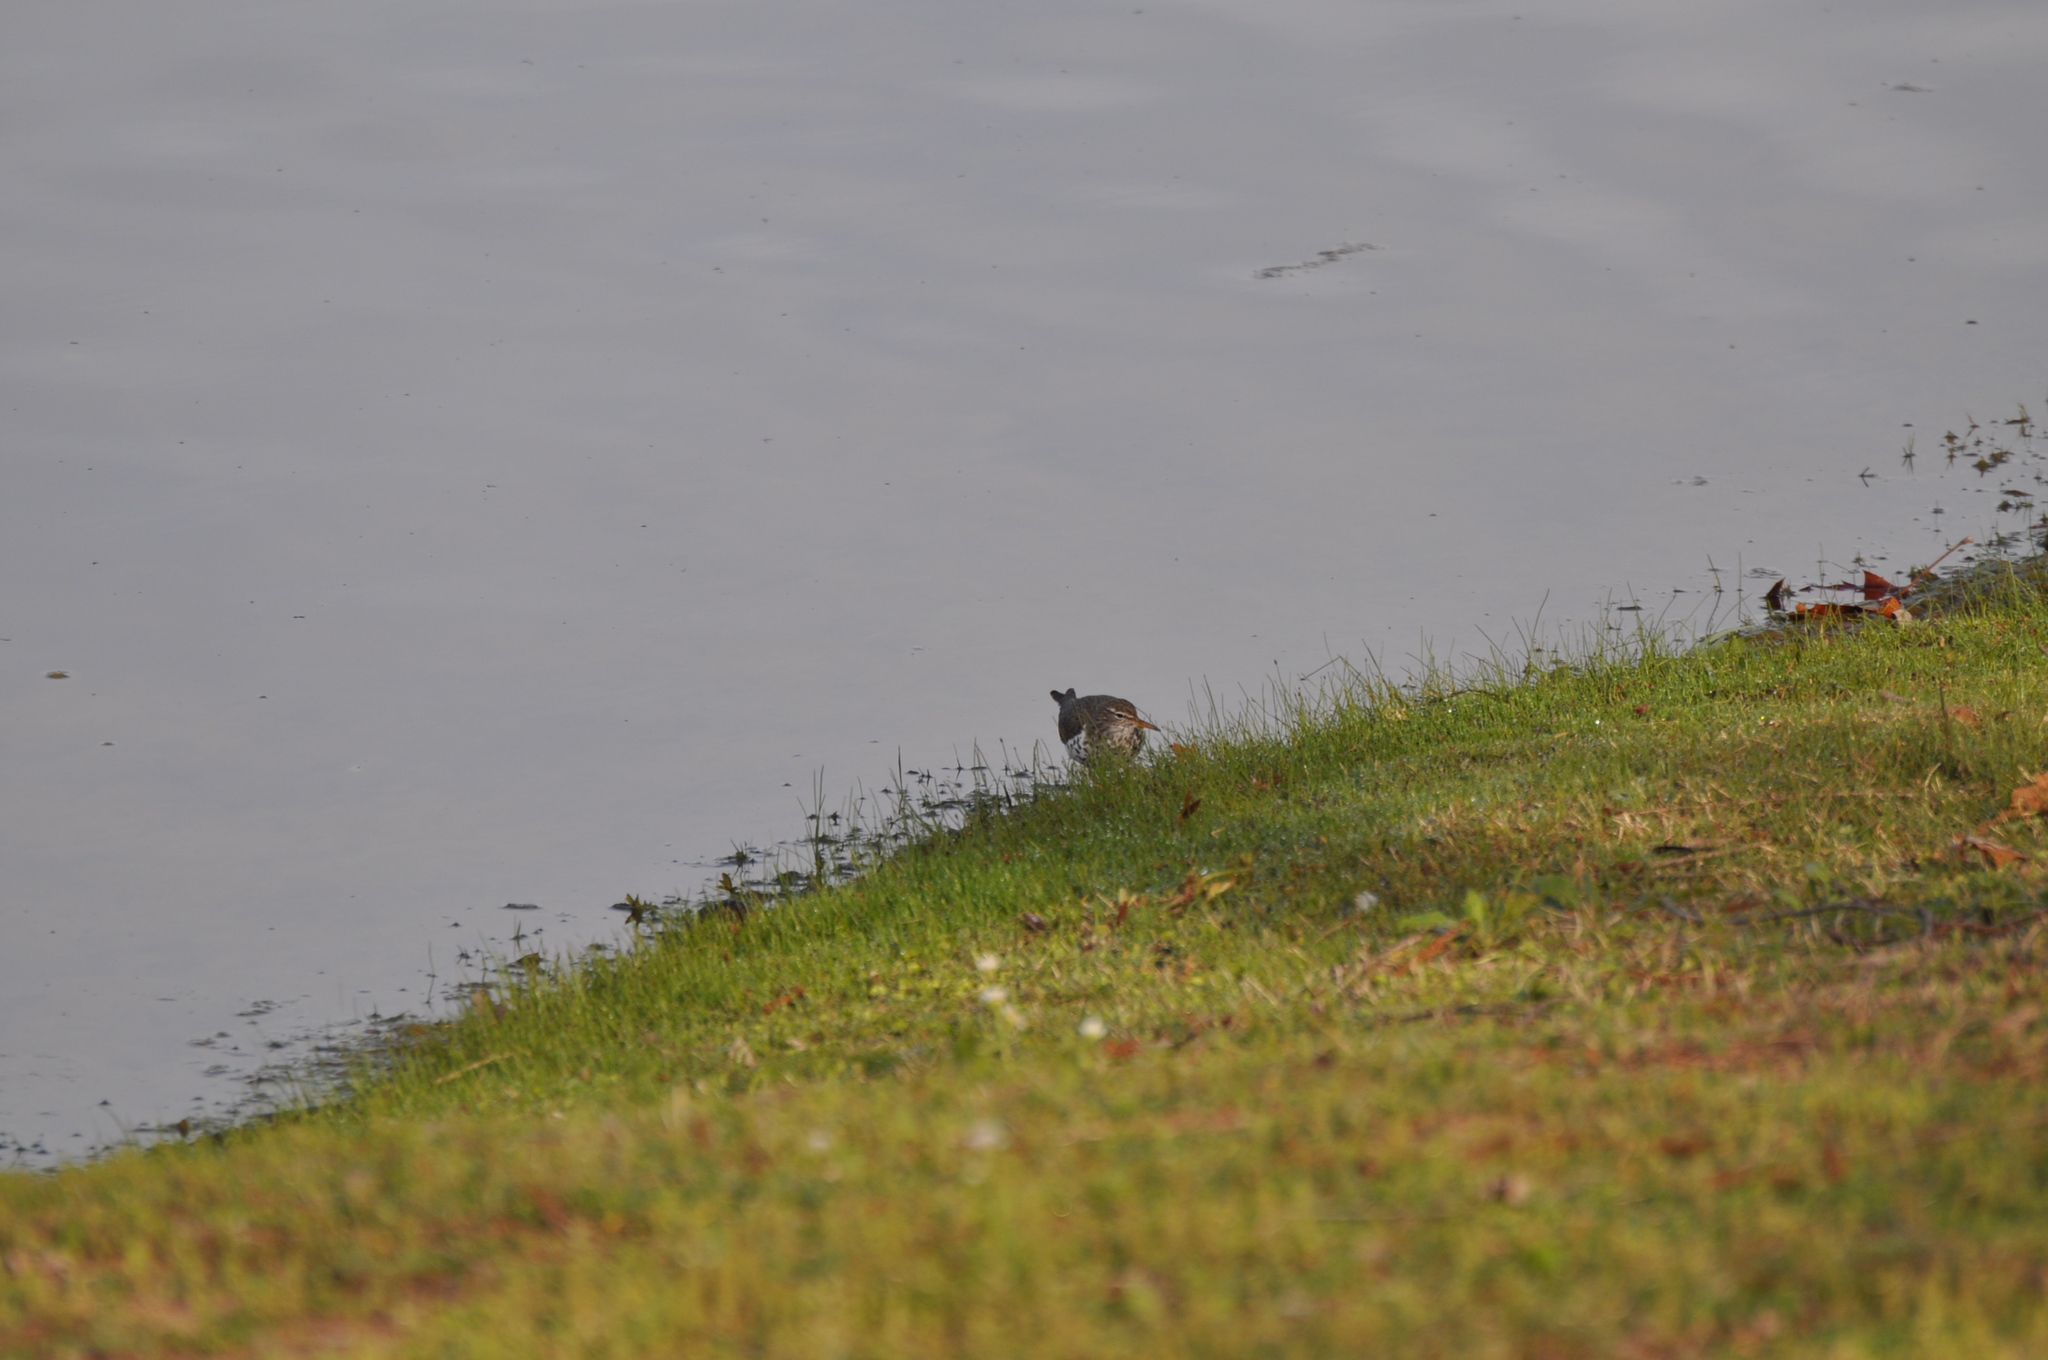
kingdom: Animalia
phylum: Chordata
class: Aves
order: Charadriiformes
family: Scolopacidae
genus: Actitis
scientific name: Actitis macularius
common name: Spotted sandpiper
